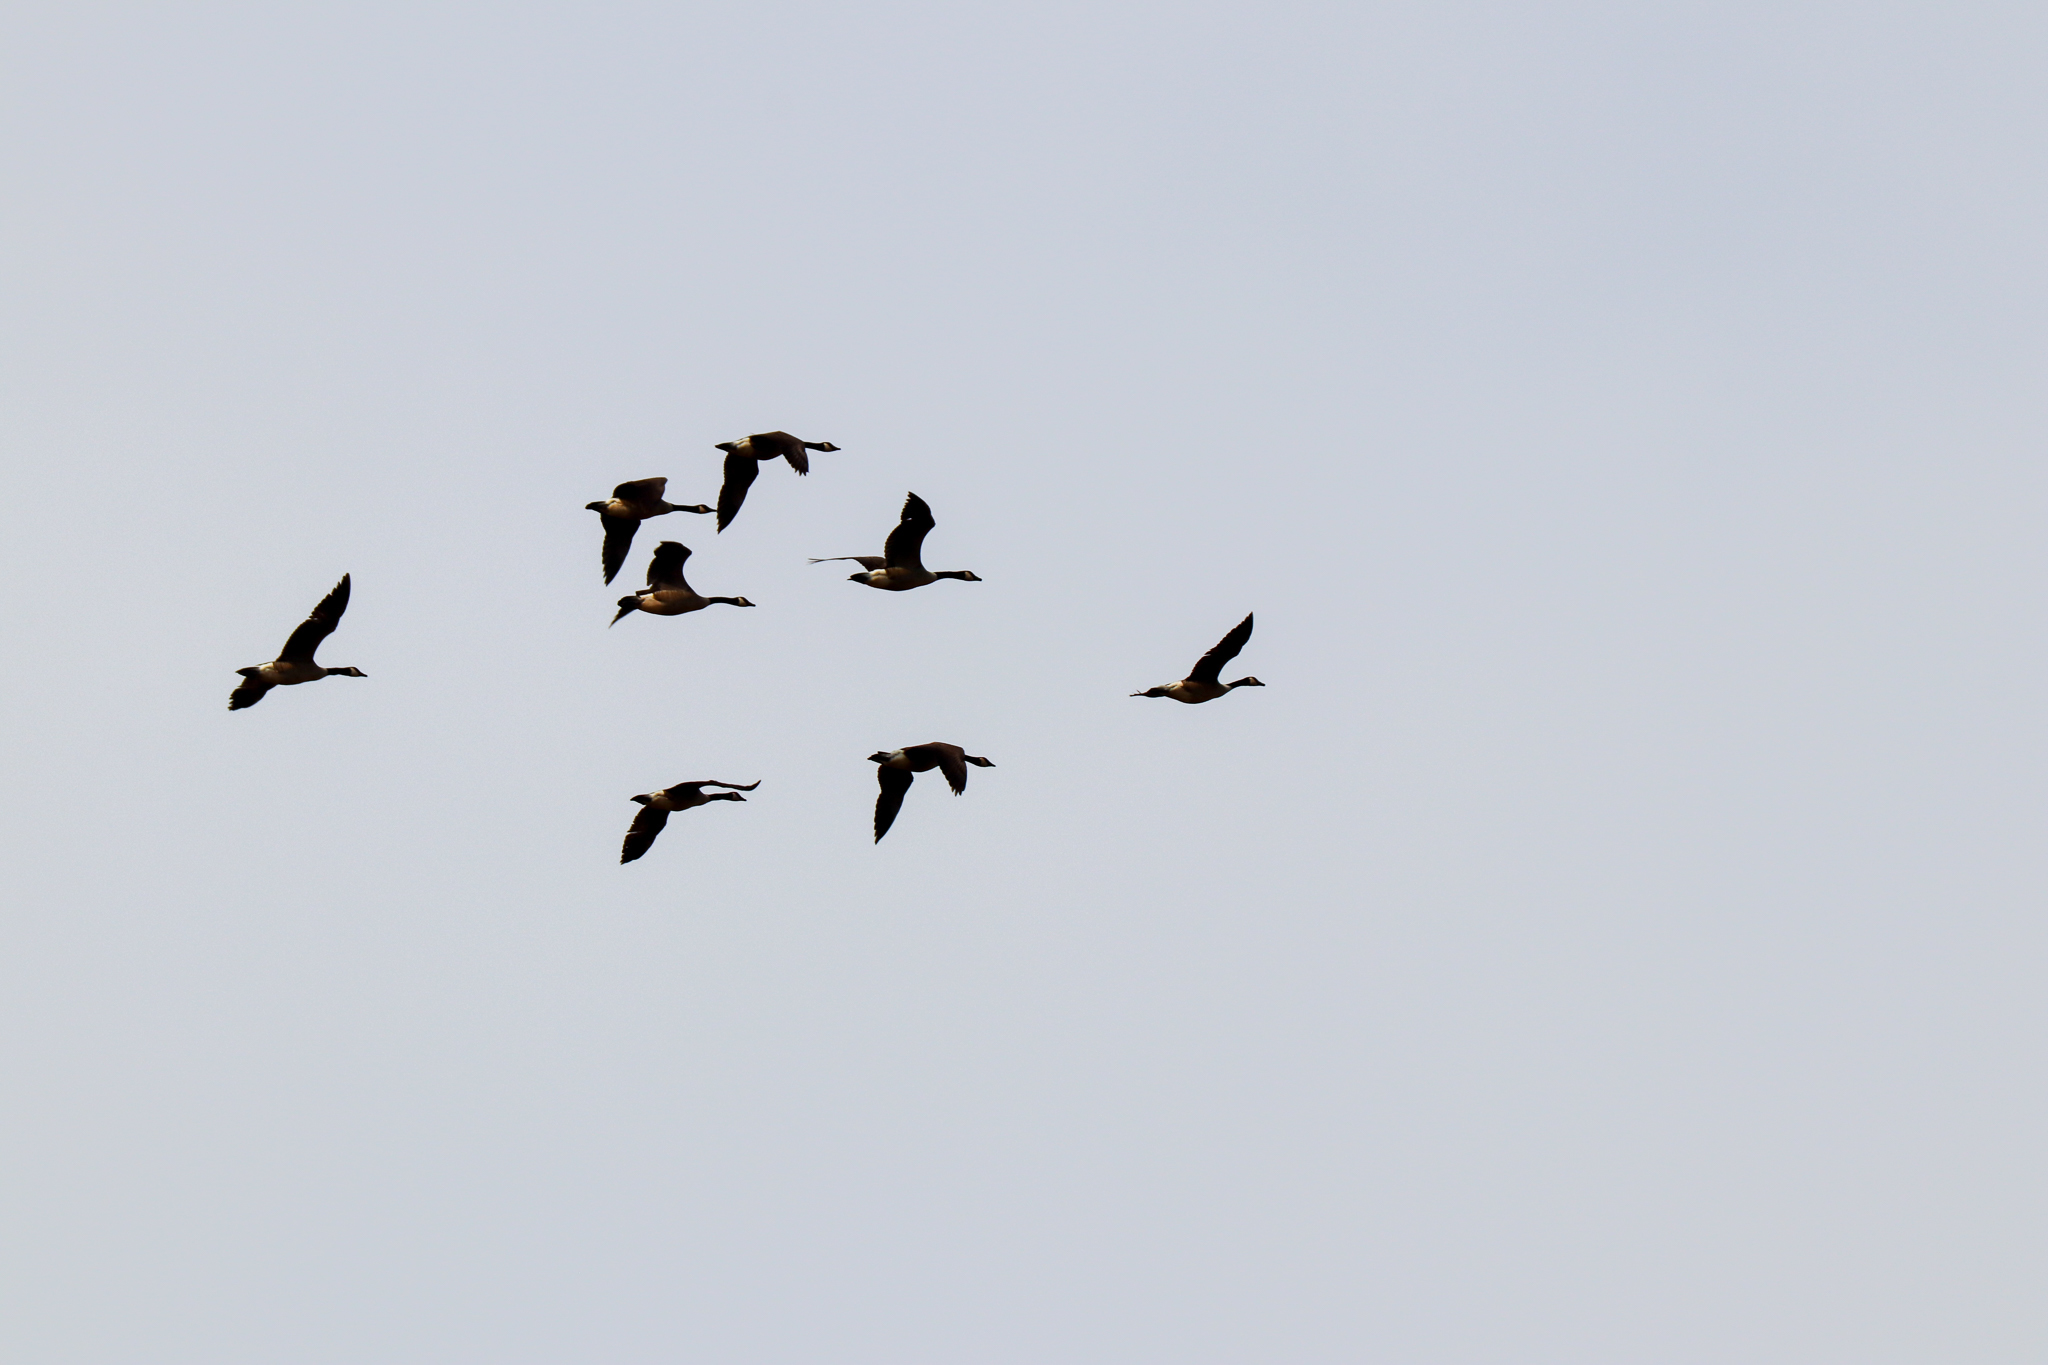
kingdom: Animalia
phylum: Chordata
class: Aves
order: Anseriformes
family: Anatidae
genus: Branta
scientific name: Branta canadensis
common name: Canada goose
